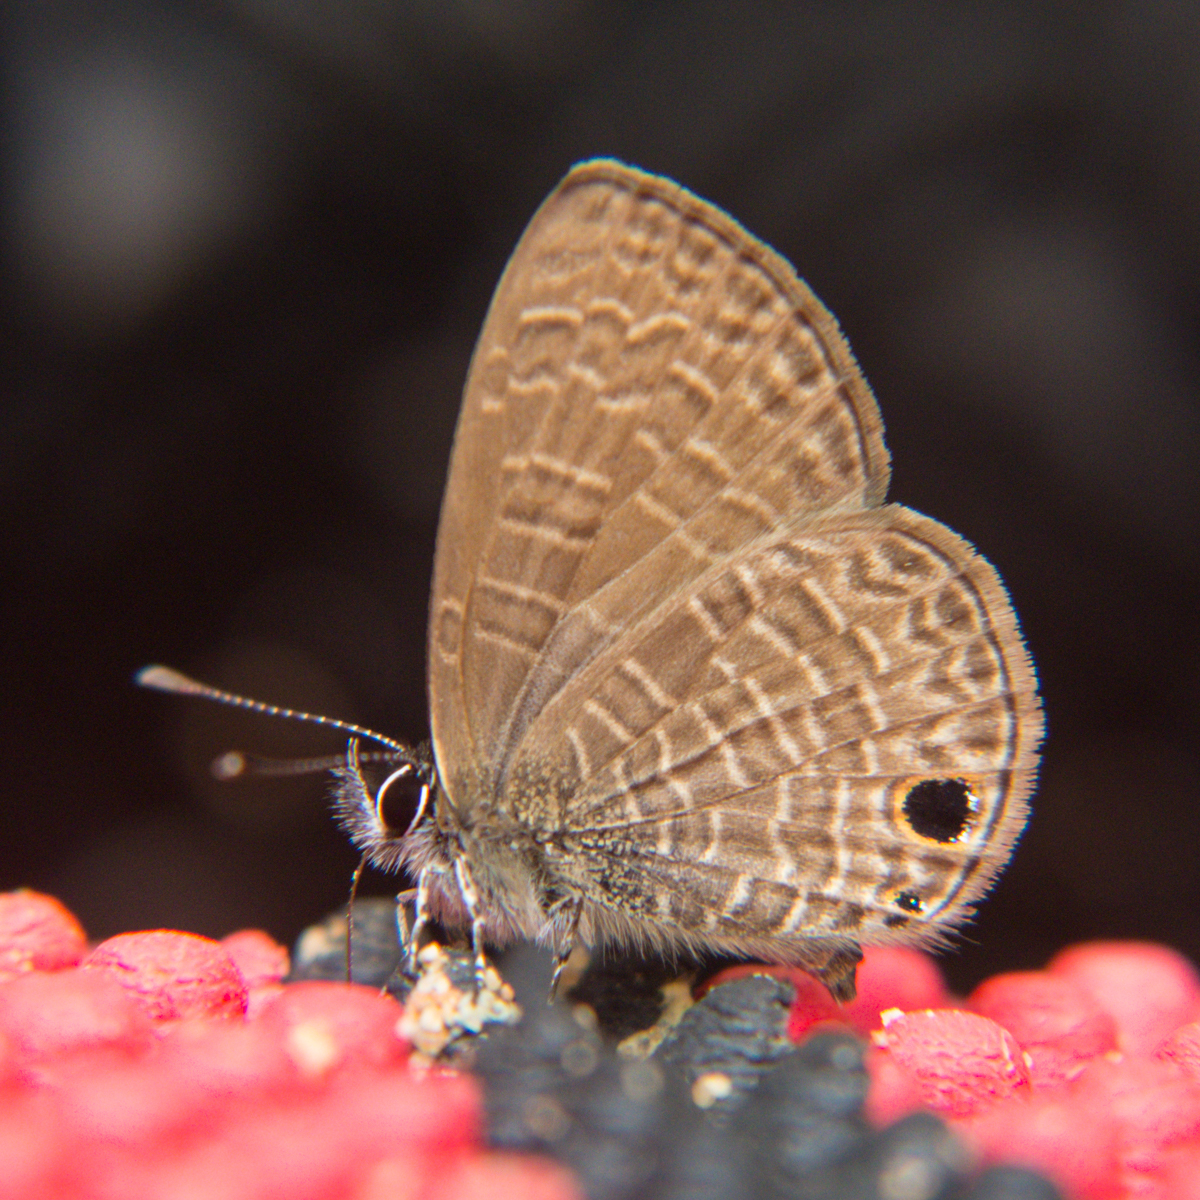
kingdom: Animalia
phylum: Arthropoda
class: Insecta
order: Lepidoptera
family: Lycaenidae
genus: Prosotas
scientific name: Prosotas dubiosa
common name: Tailless lineblue
